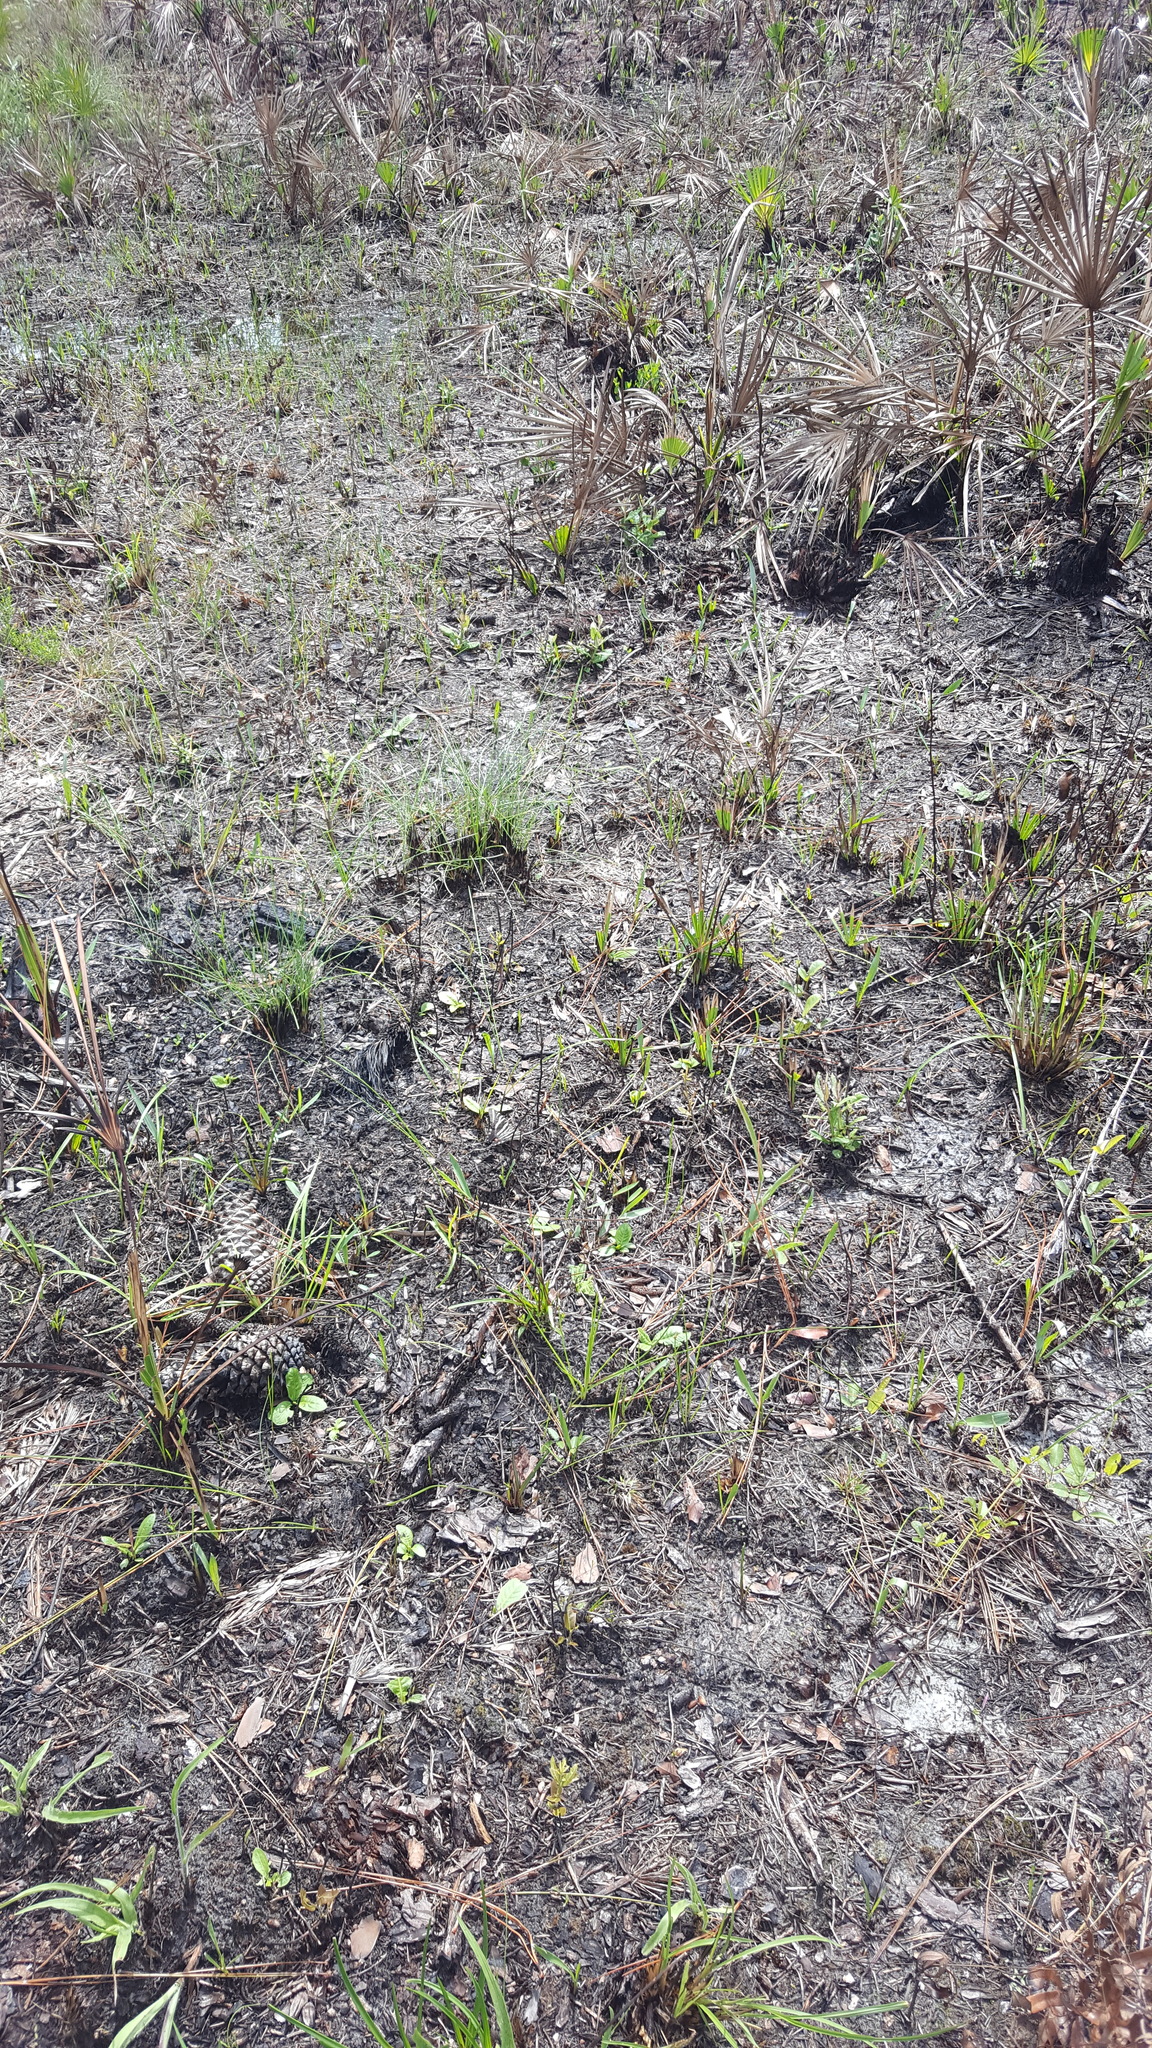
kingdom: Animalia
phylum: Arthropoda
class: Insecta
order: Lepidoptera
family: Papilionidae
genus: Protographium
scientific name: Protographium marcellus
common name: Zebra swallowtail
